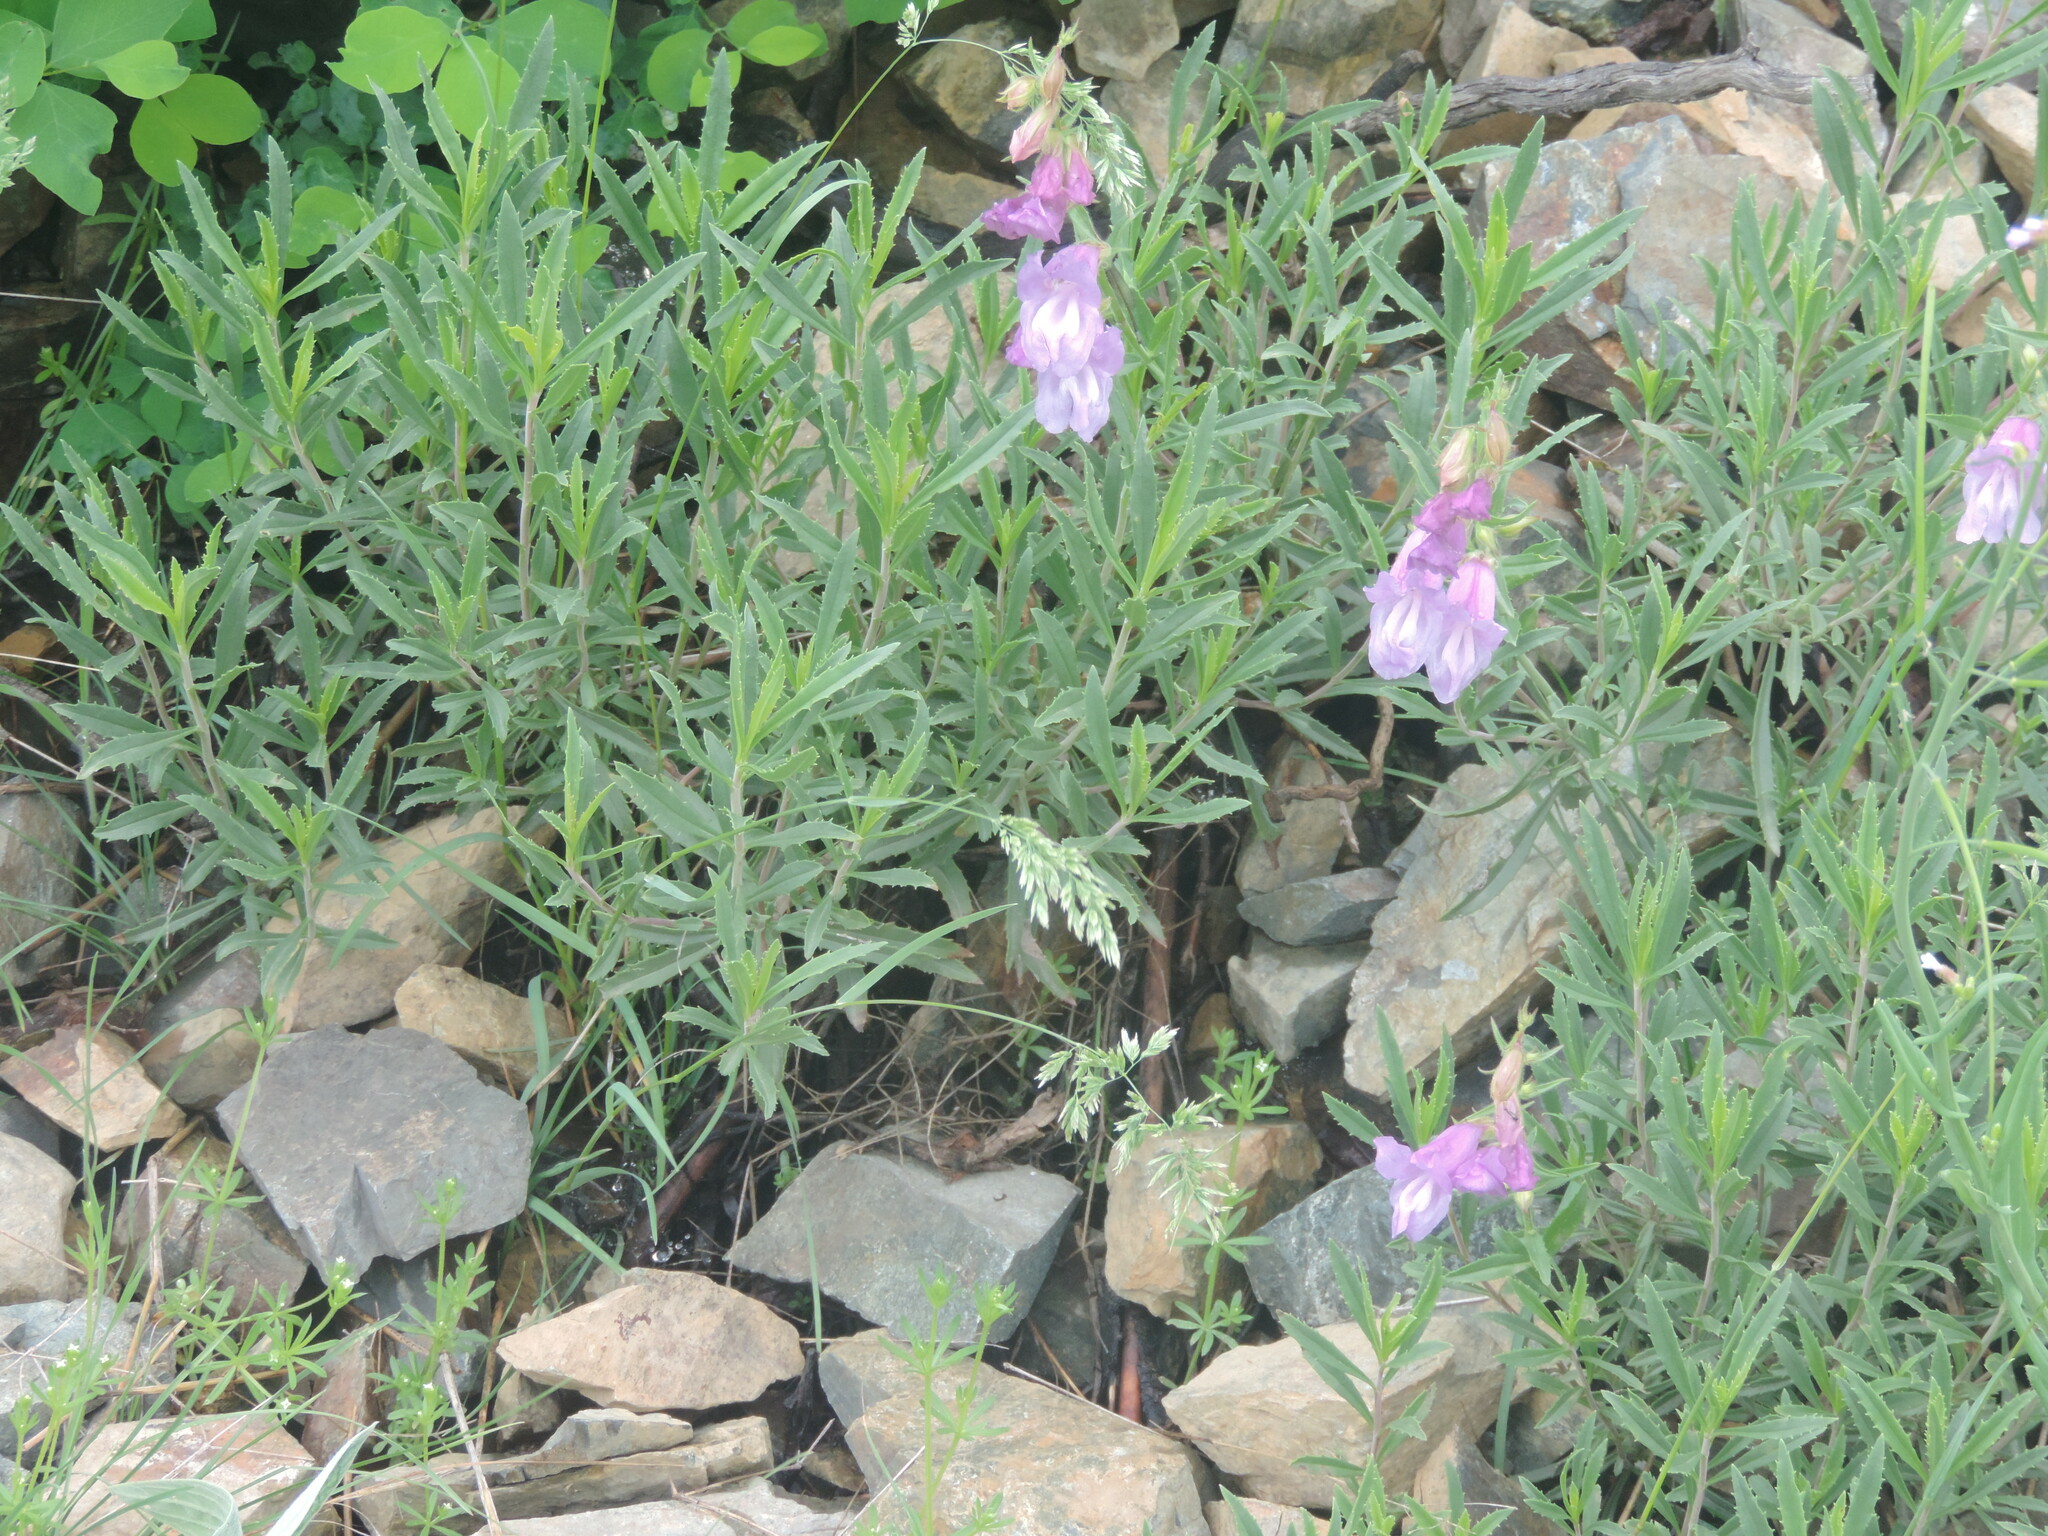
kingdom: Plantae
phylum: Tracheophyta
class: Magnoliopsida
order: Lamiales
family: Plantaginaceae
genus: Penstemon
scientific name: Penstemon fruticosus
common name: Bush penstemon
